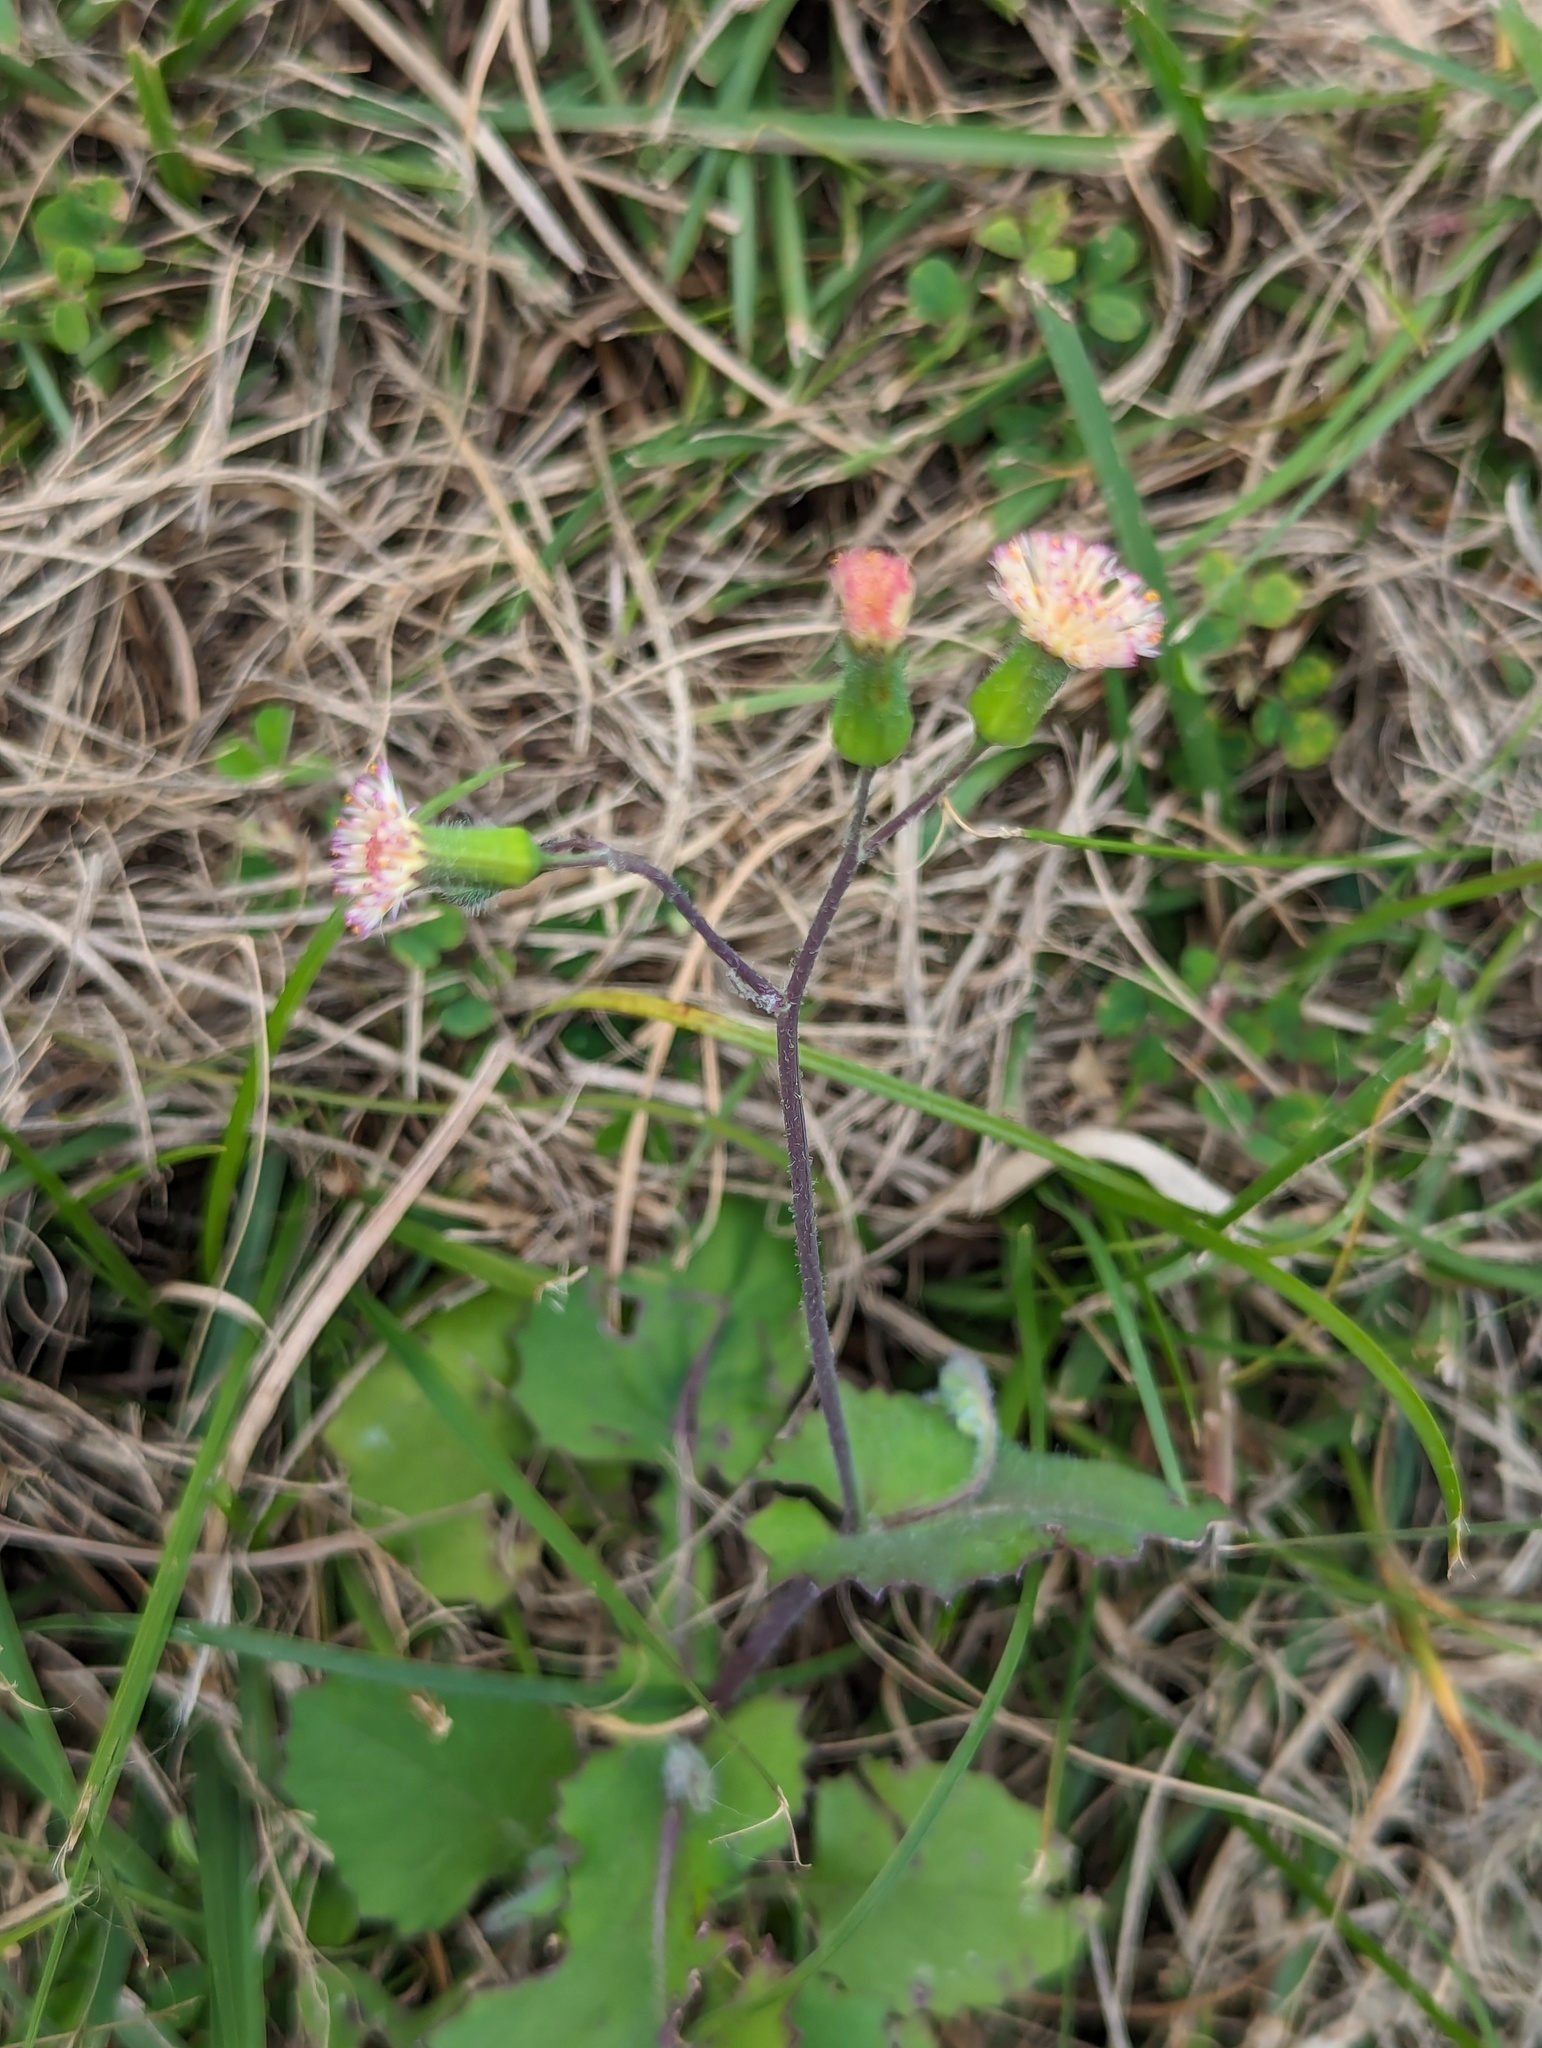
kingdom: Plantae
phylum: Tracheophyta
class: Magnoliopsida
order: Asterales
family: Asteraceae
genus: Emilia
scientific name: Emilia praetermissa
